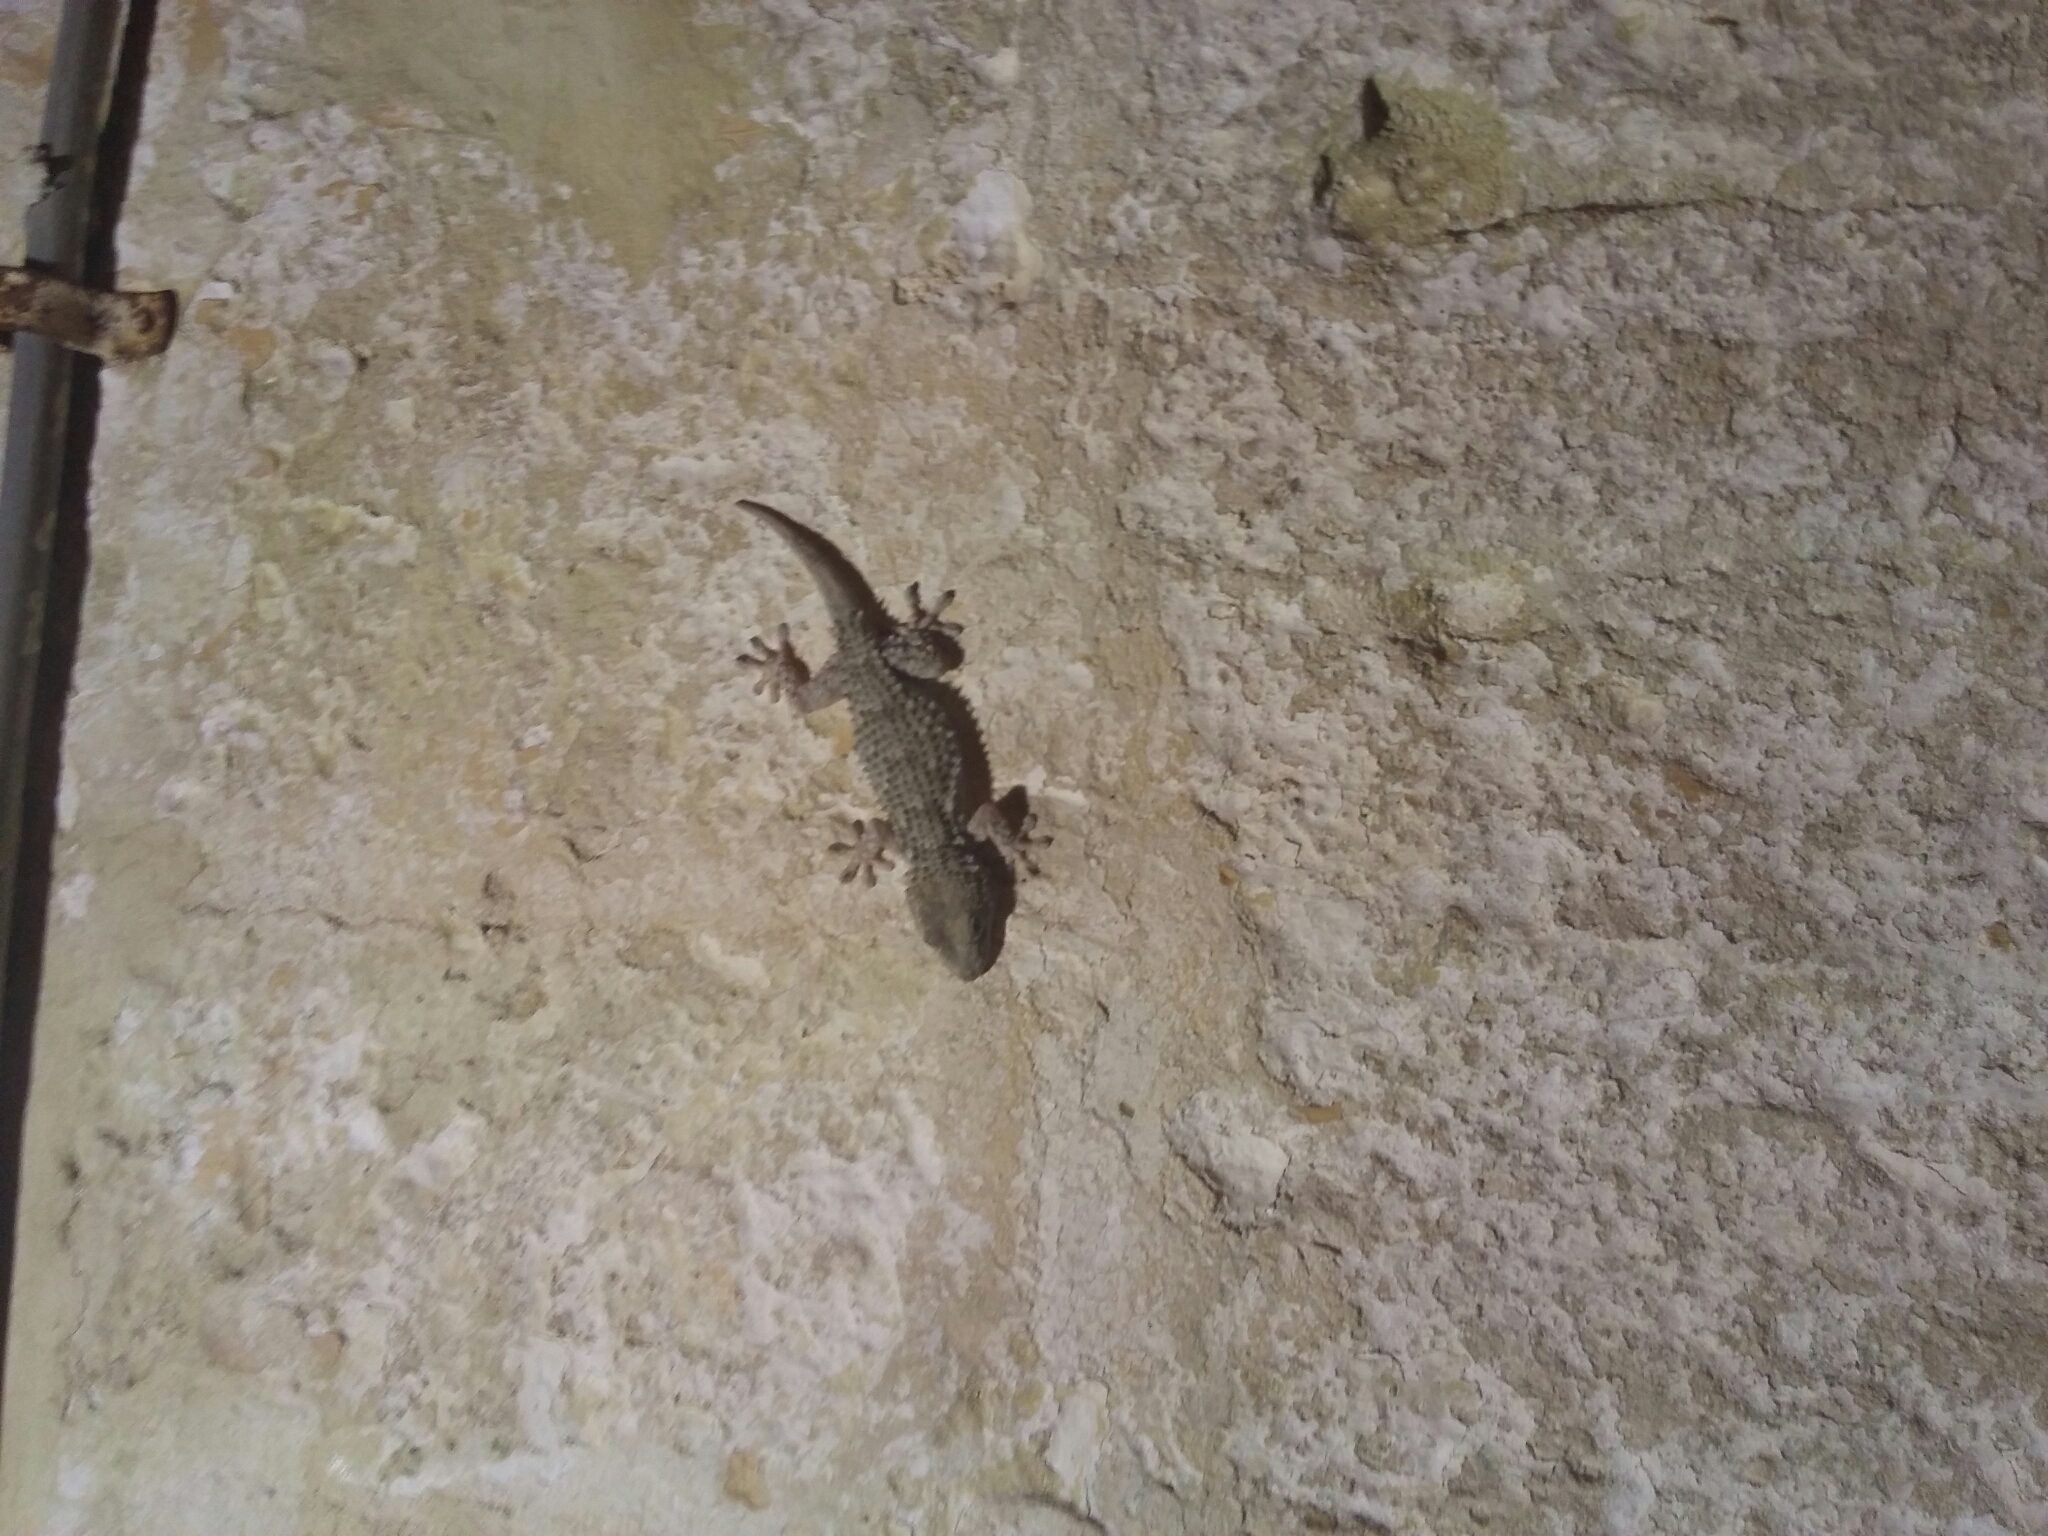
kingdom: Animalia
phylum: Chordata
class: Squamata
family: Phyllodactylidae
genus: Tarentola
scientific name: Tarentola mauritanica
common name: Moorish gecko
